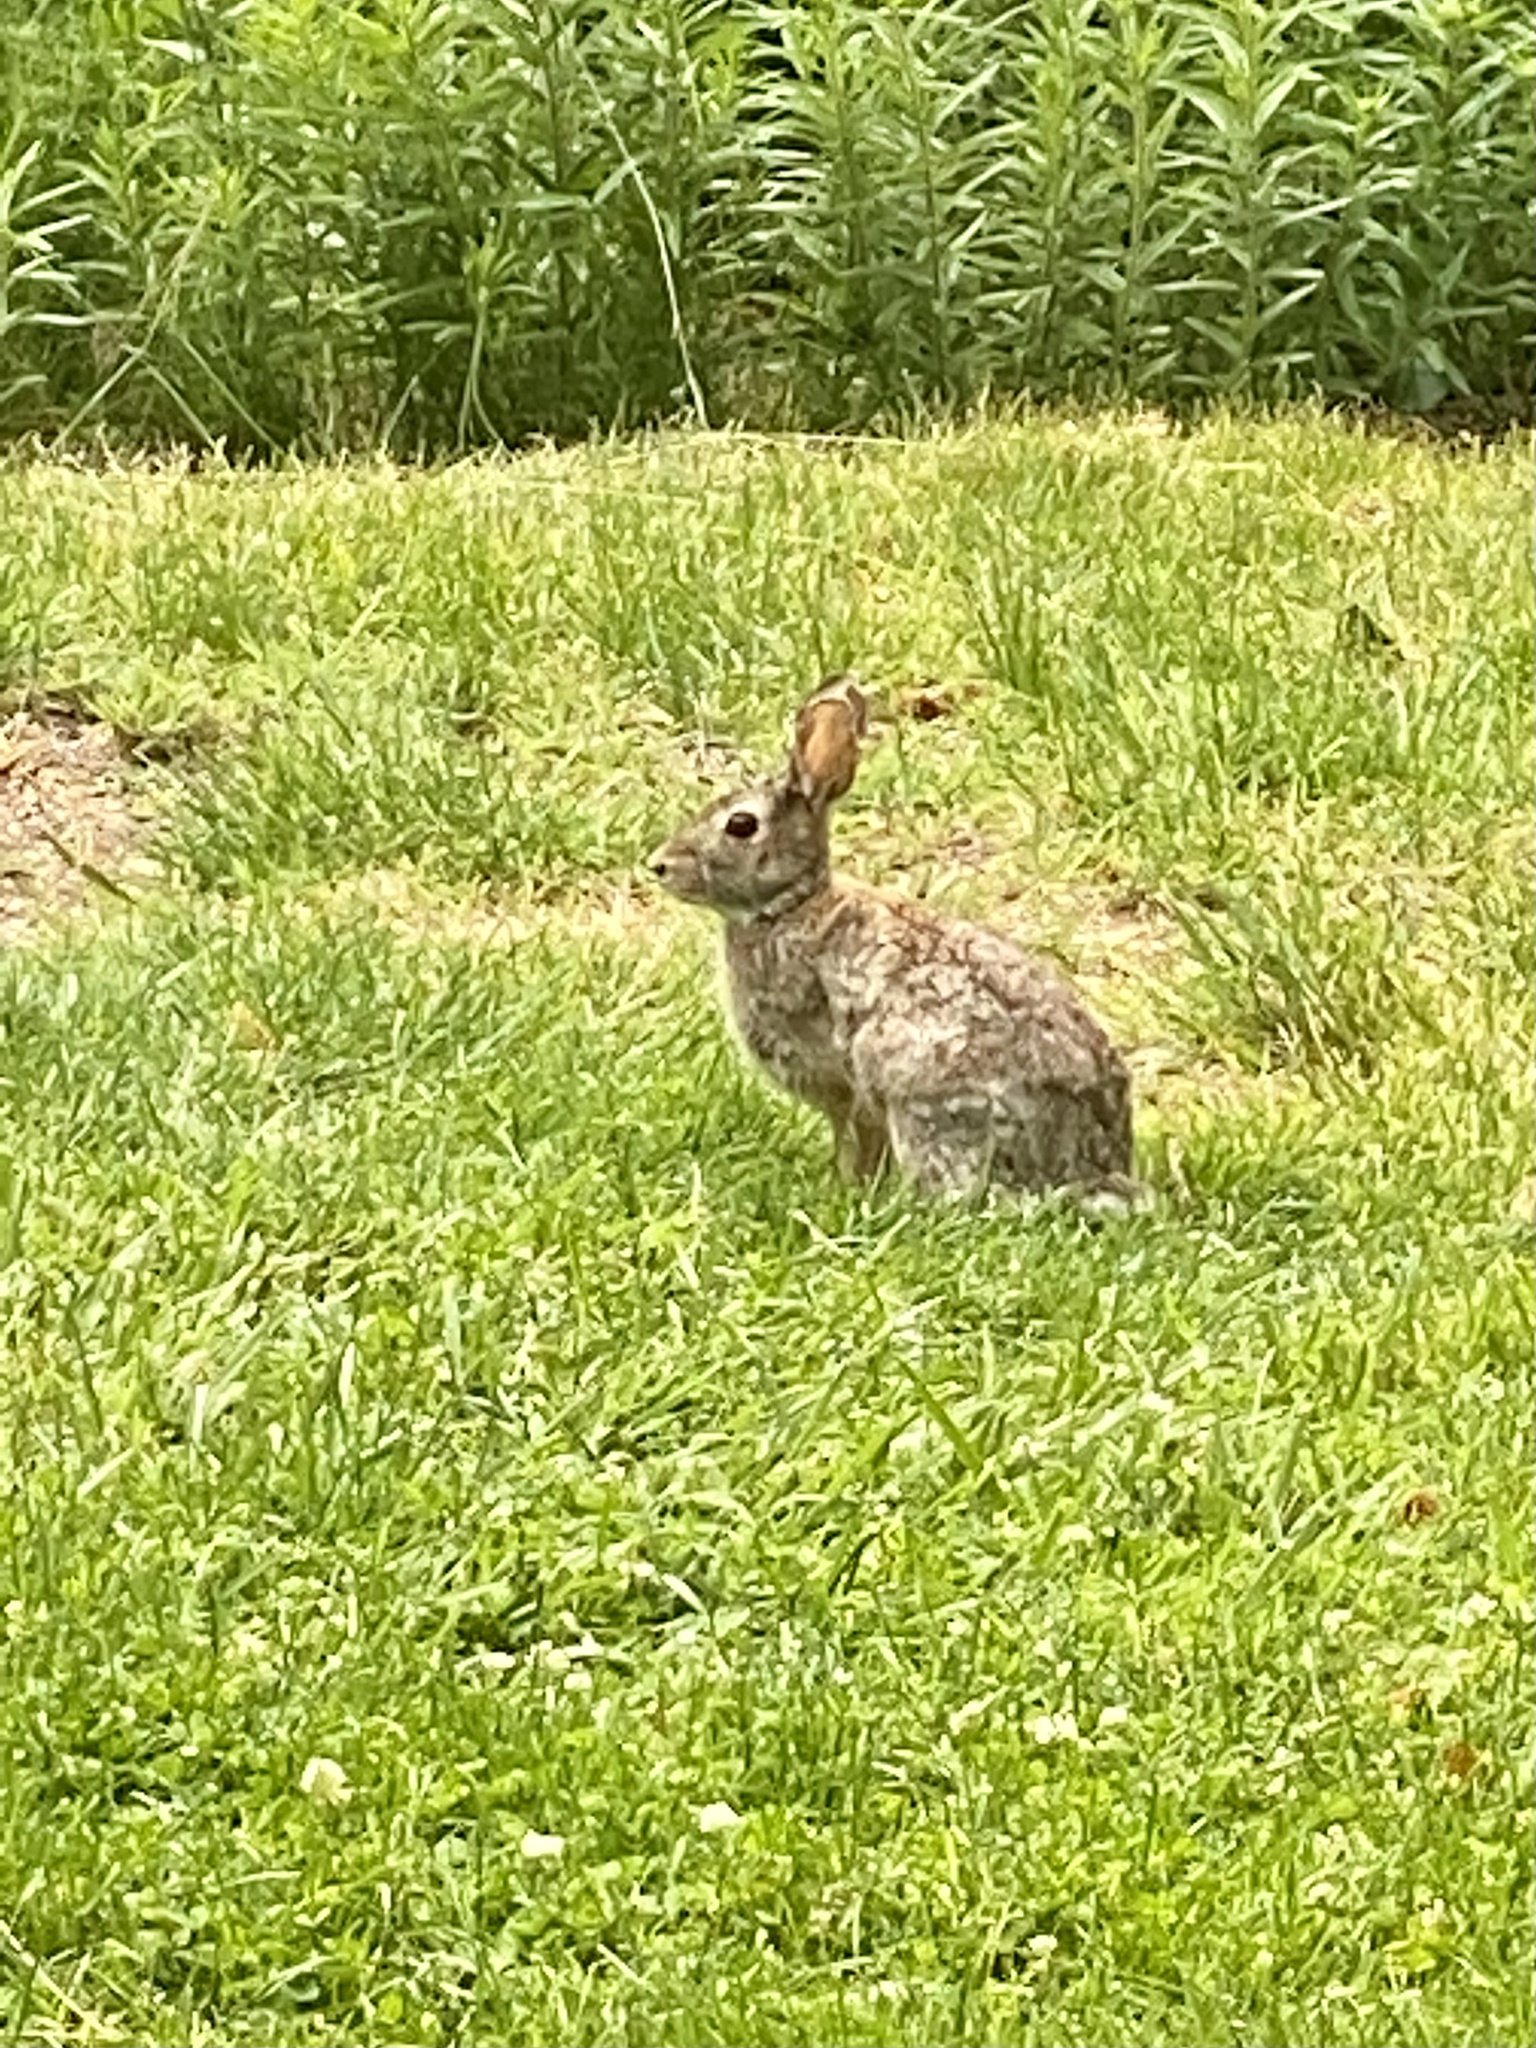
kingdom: Animalia
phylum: Chordata
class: Mammalia
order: Lagomorpha
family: Leporidae
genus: Sylvilagus
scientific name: Sylvilagus floridanus
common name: Eastern cottontail
